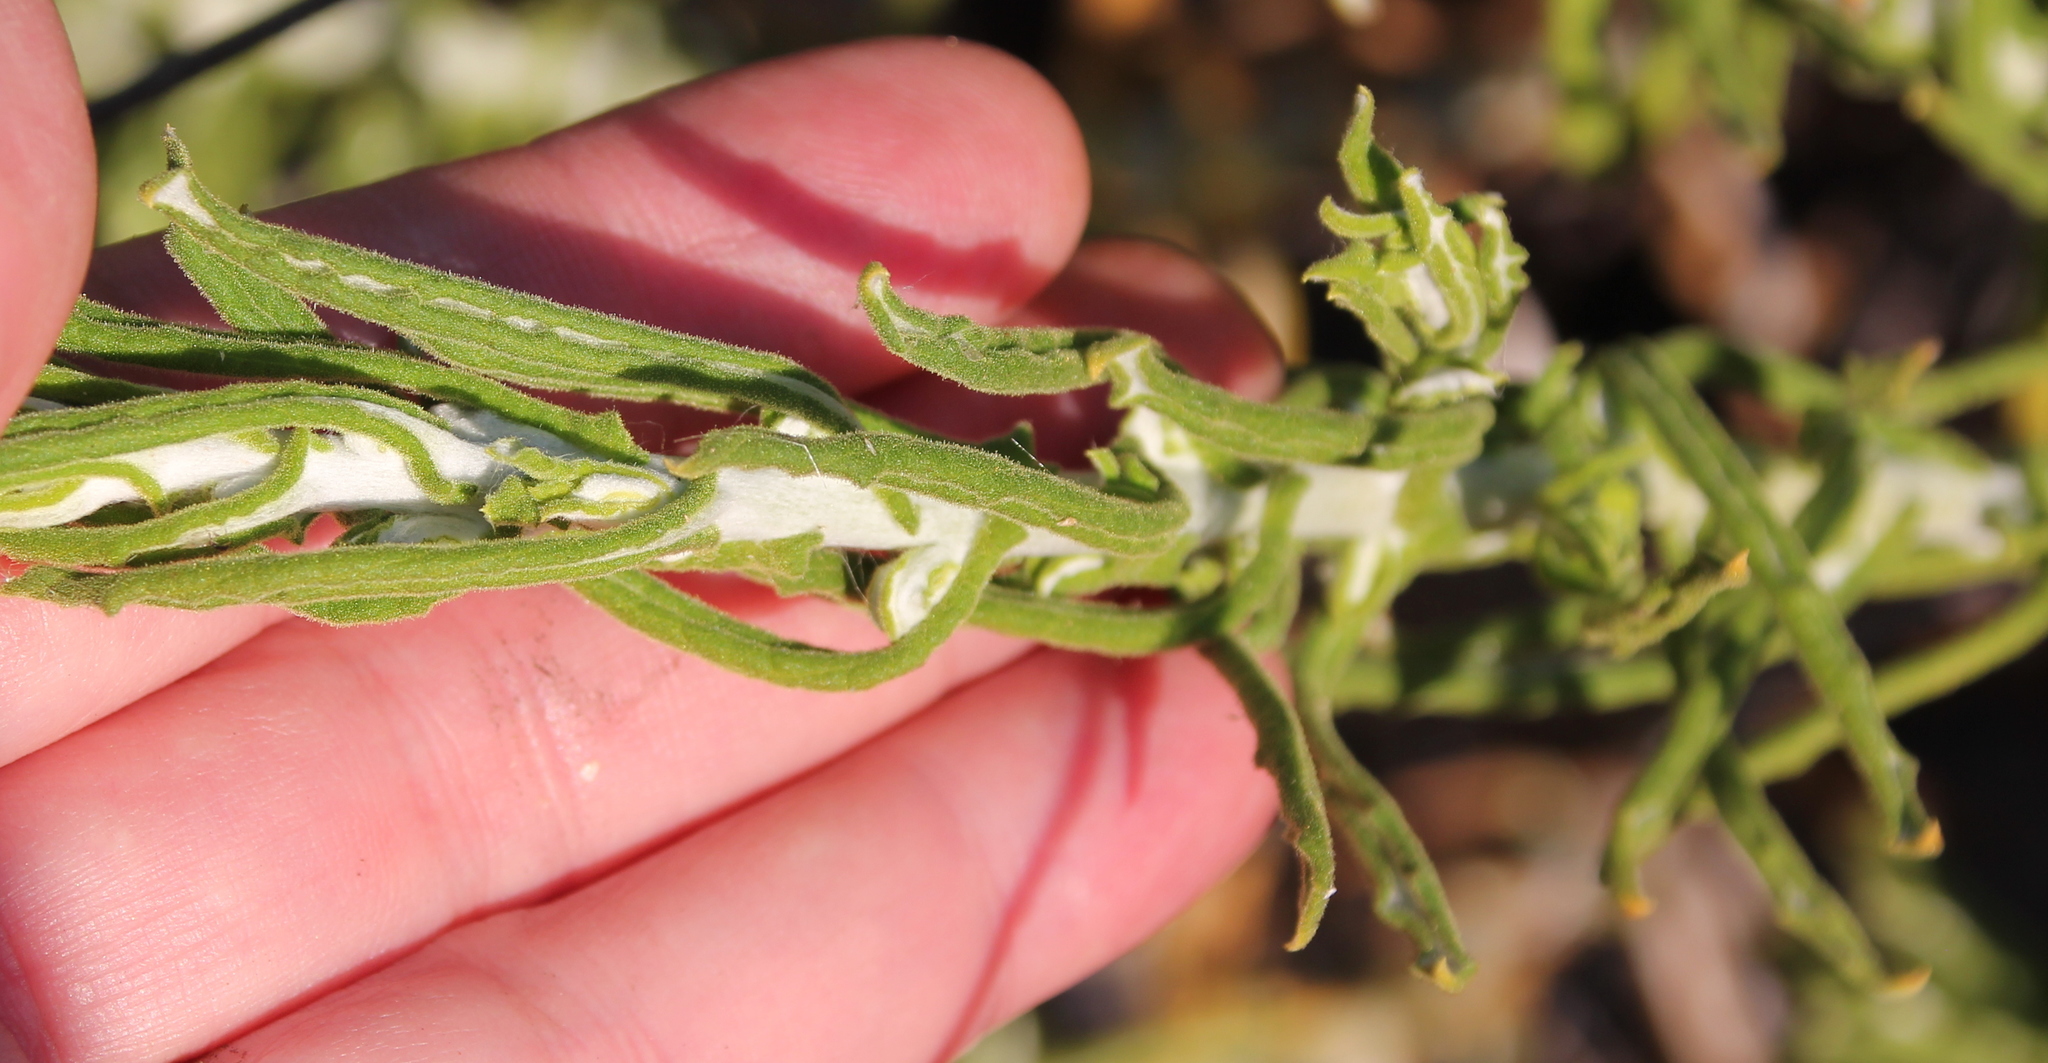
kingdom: Plantae
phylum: Tracheophyta
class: Magnoliopsida
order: Asterales
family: Asteraceae
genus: Pseudognaphalium
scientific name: Pseudognaphalium biolettii
